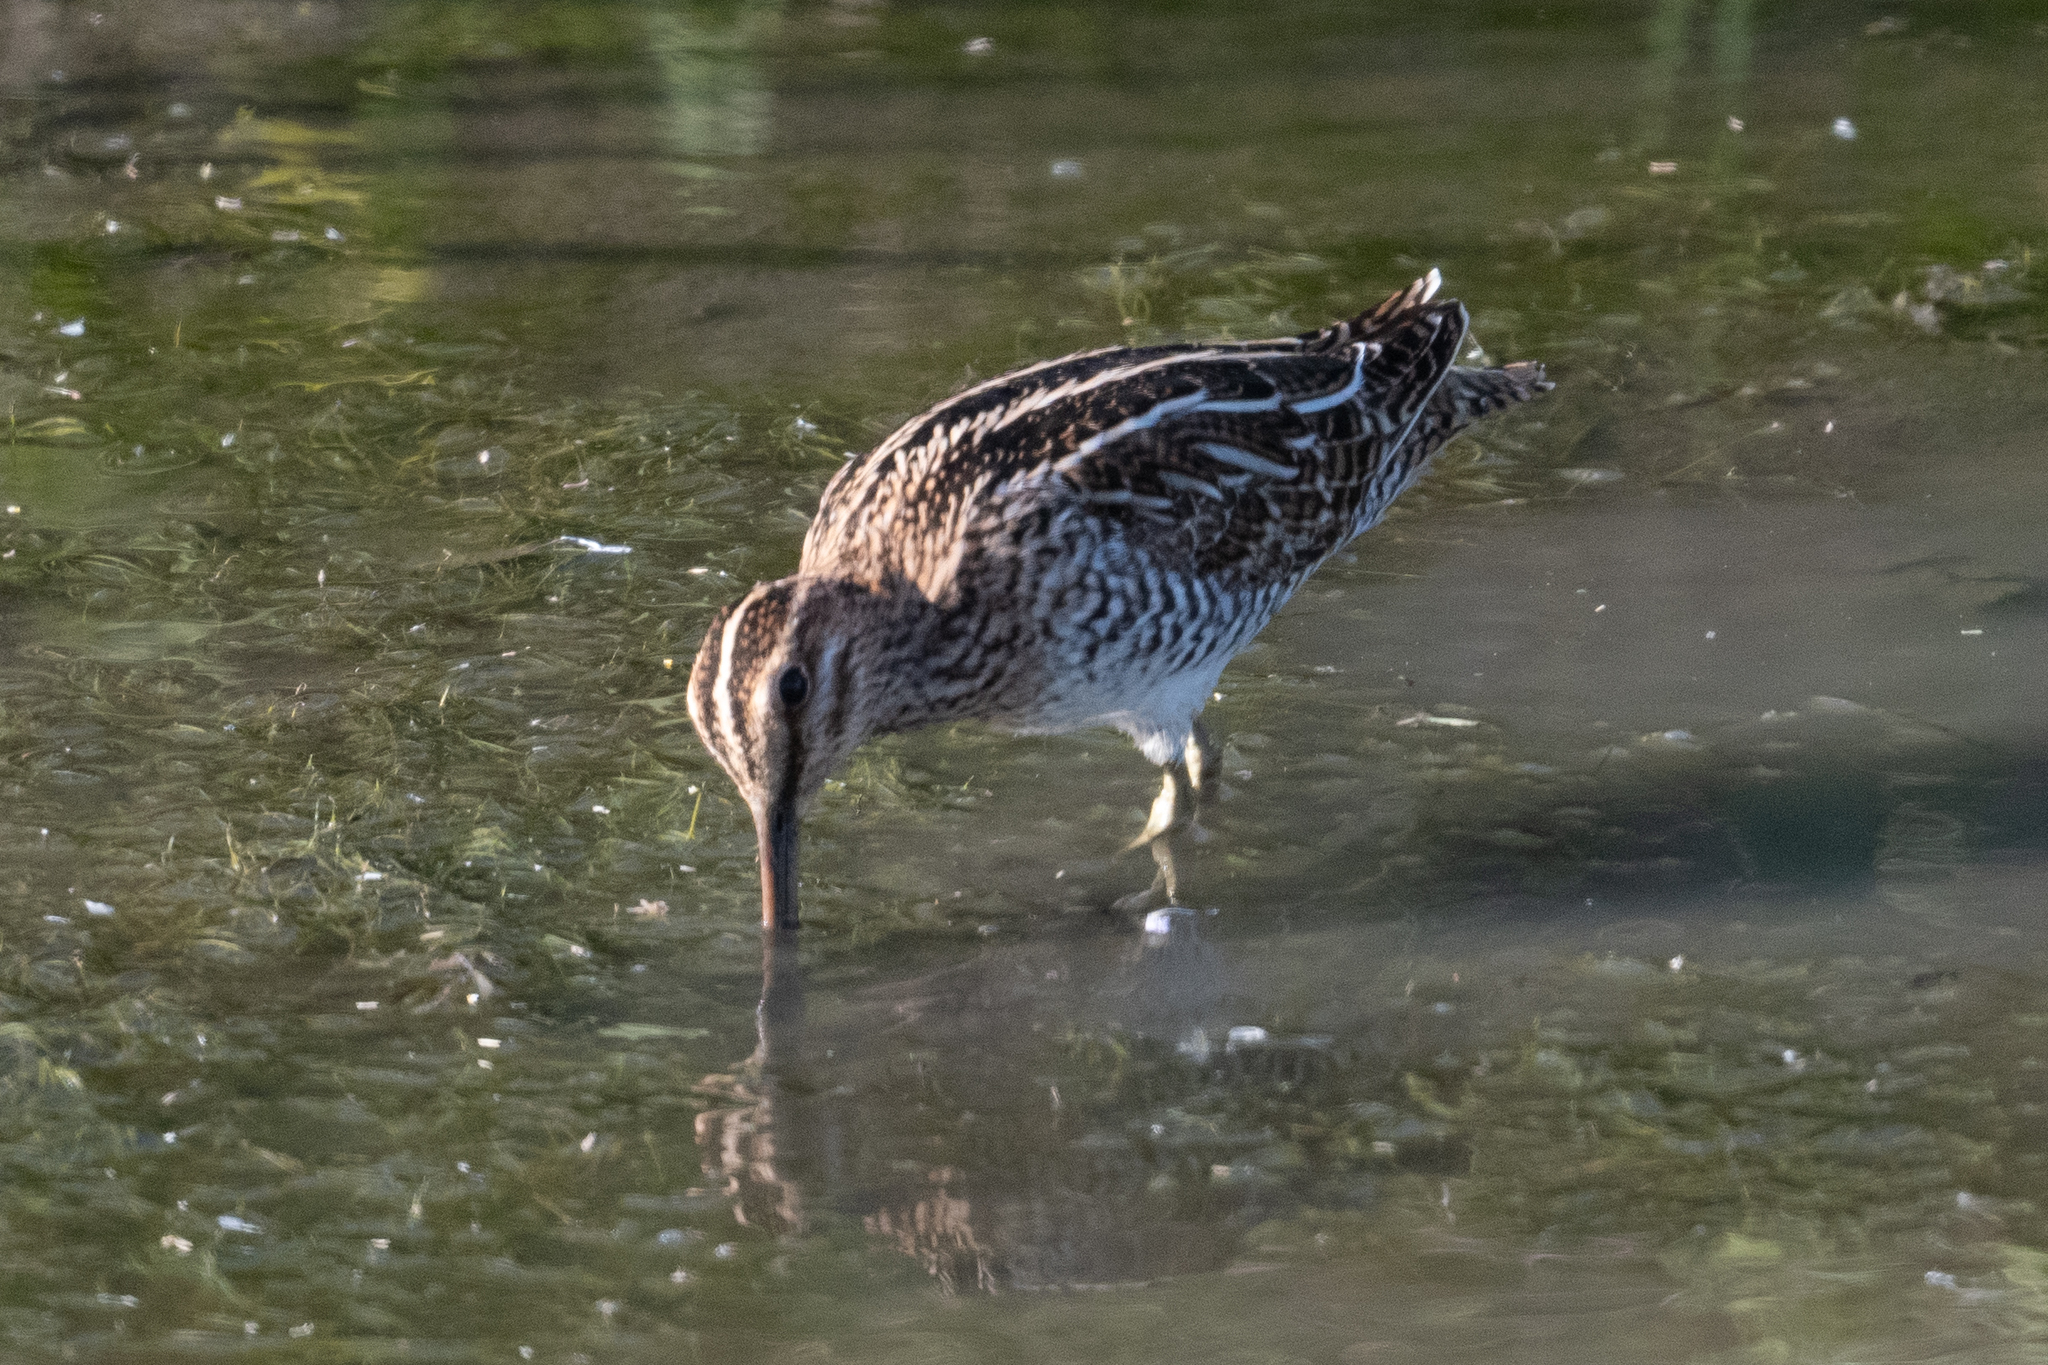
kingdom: Animalia
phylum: Chordata
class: Aves
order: Charadriiformes
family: Scolopacidae
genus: Gallinago
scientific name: Gallinago delicata
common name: Wilson's snipe
